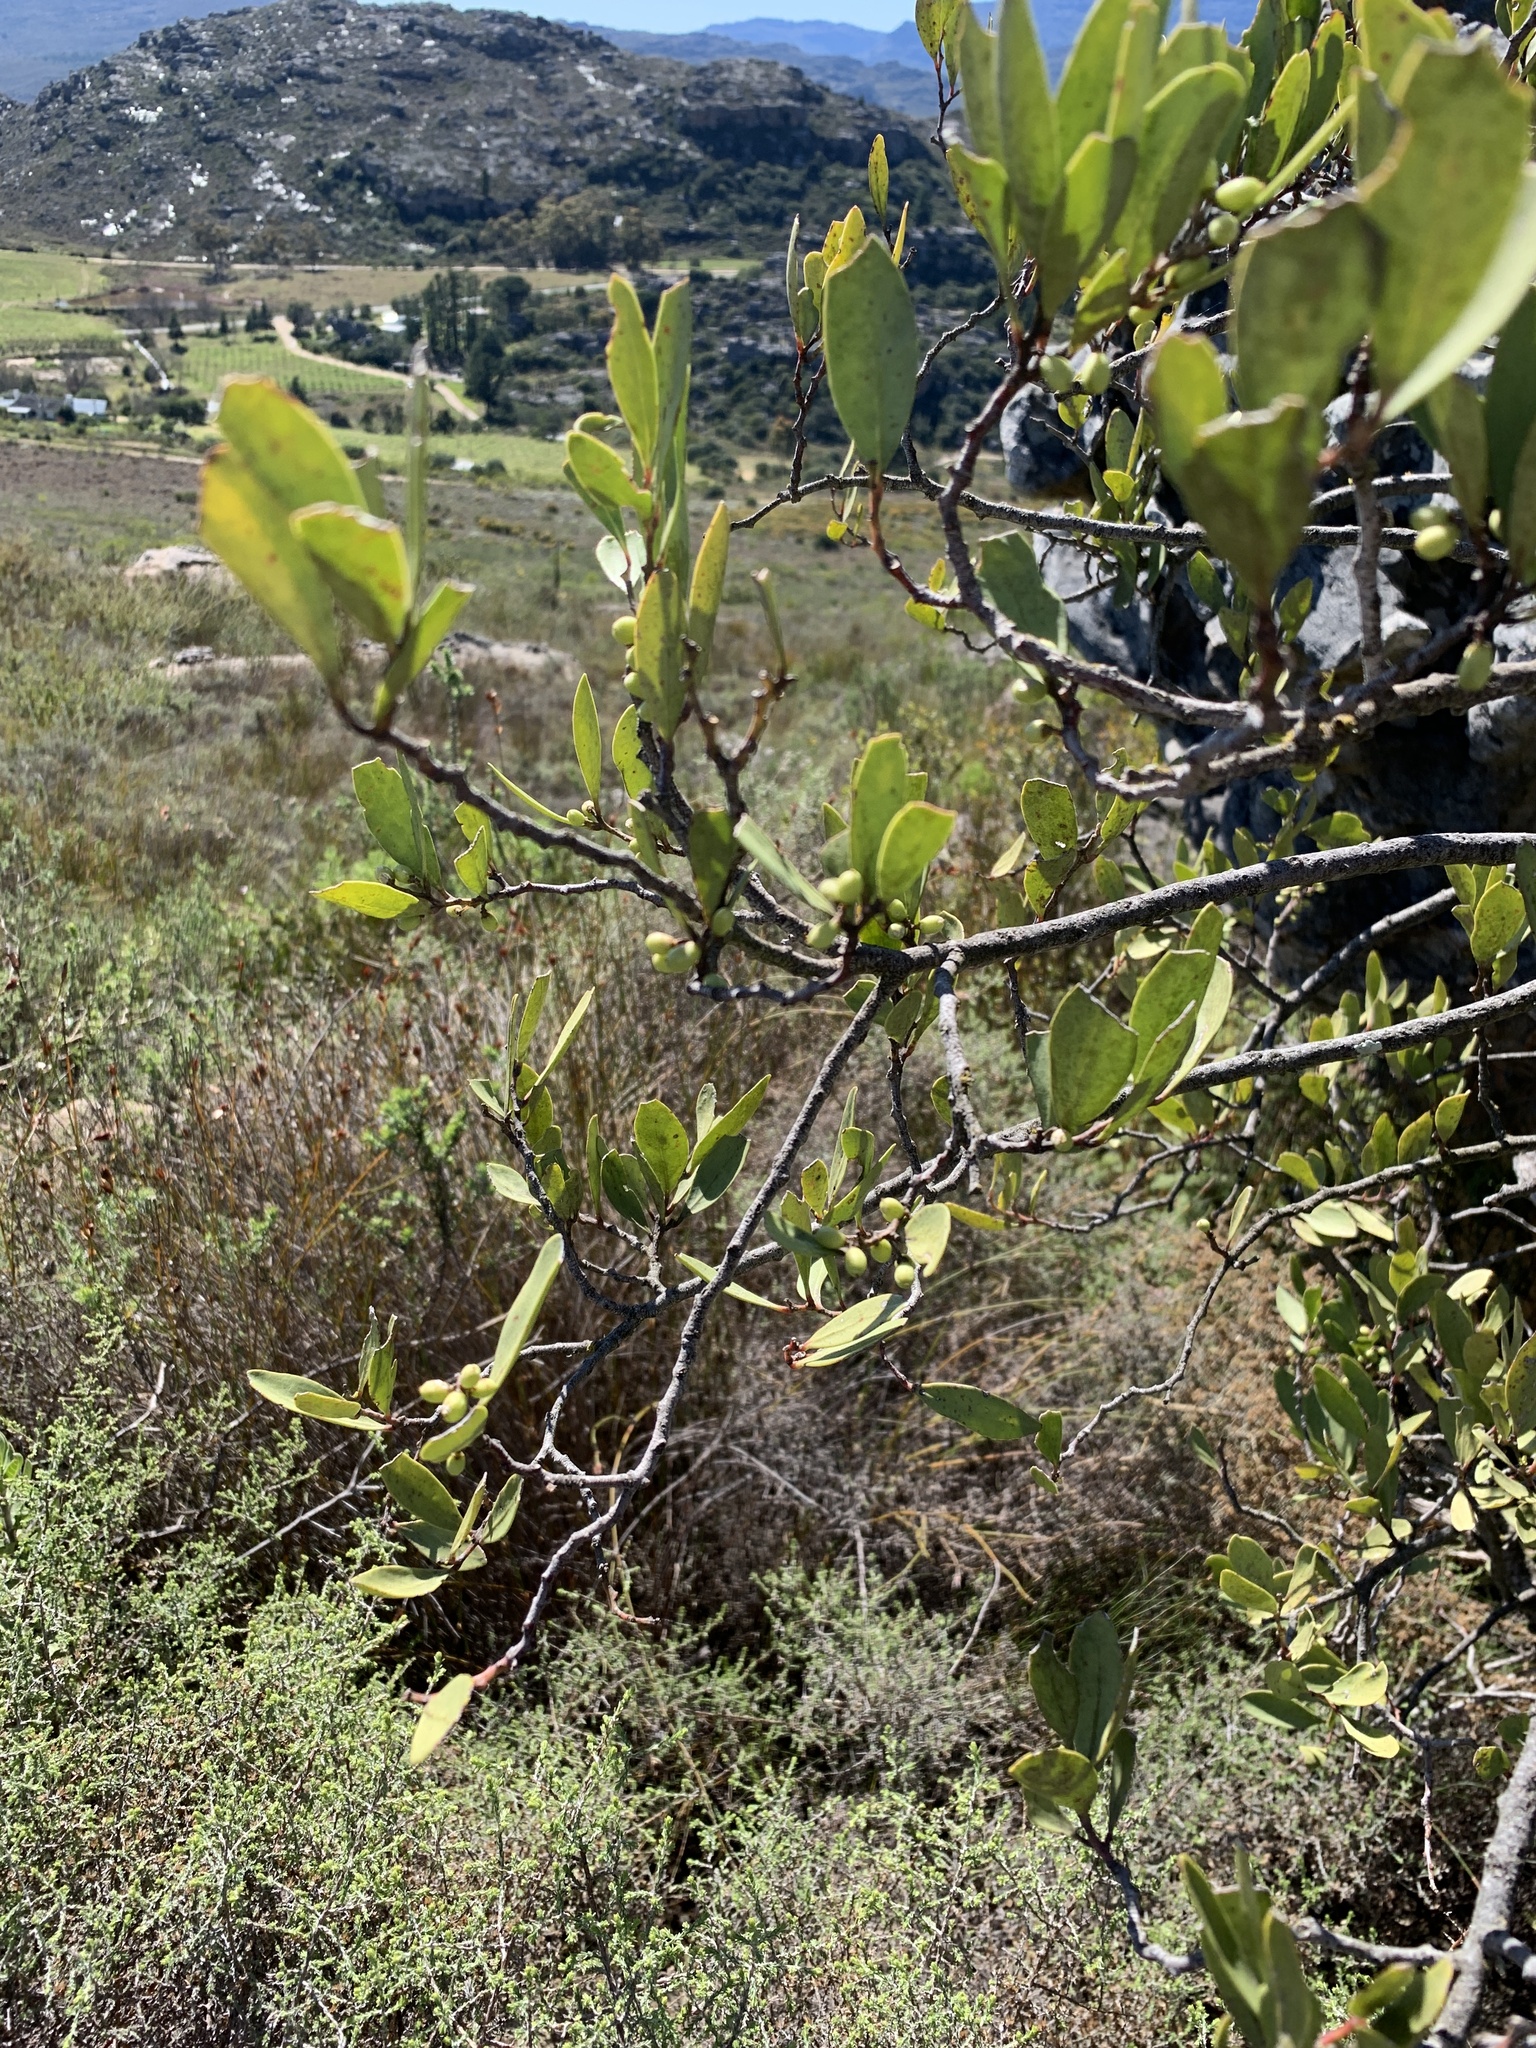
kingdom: Plantae
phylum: Tracheophyta
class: Magnoliopsida
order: Celastrales
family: Celastraceae
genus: Gymnosporia
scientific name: Gymnosporia laurina
